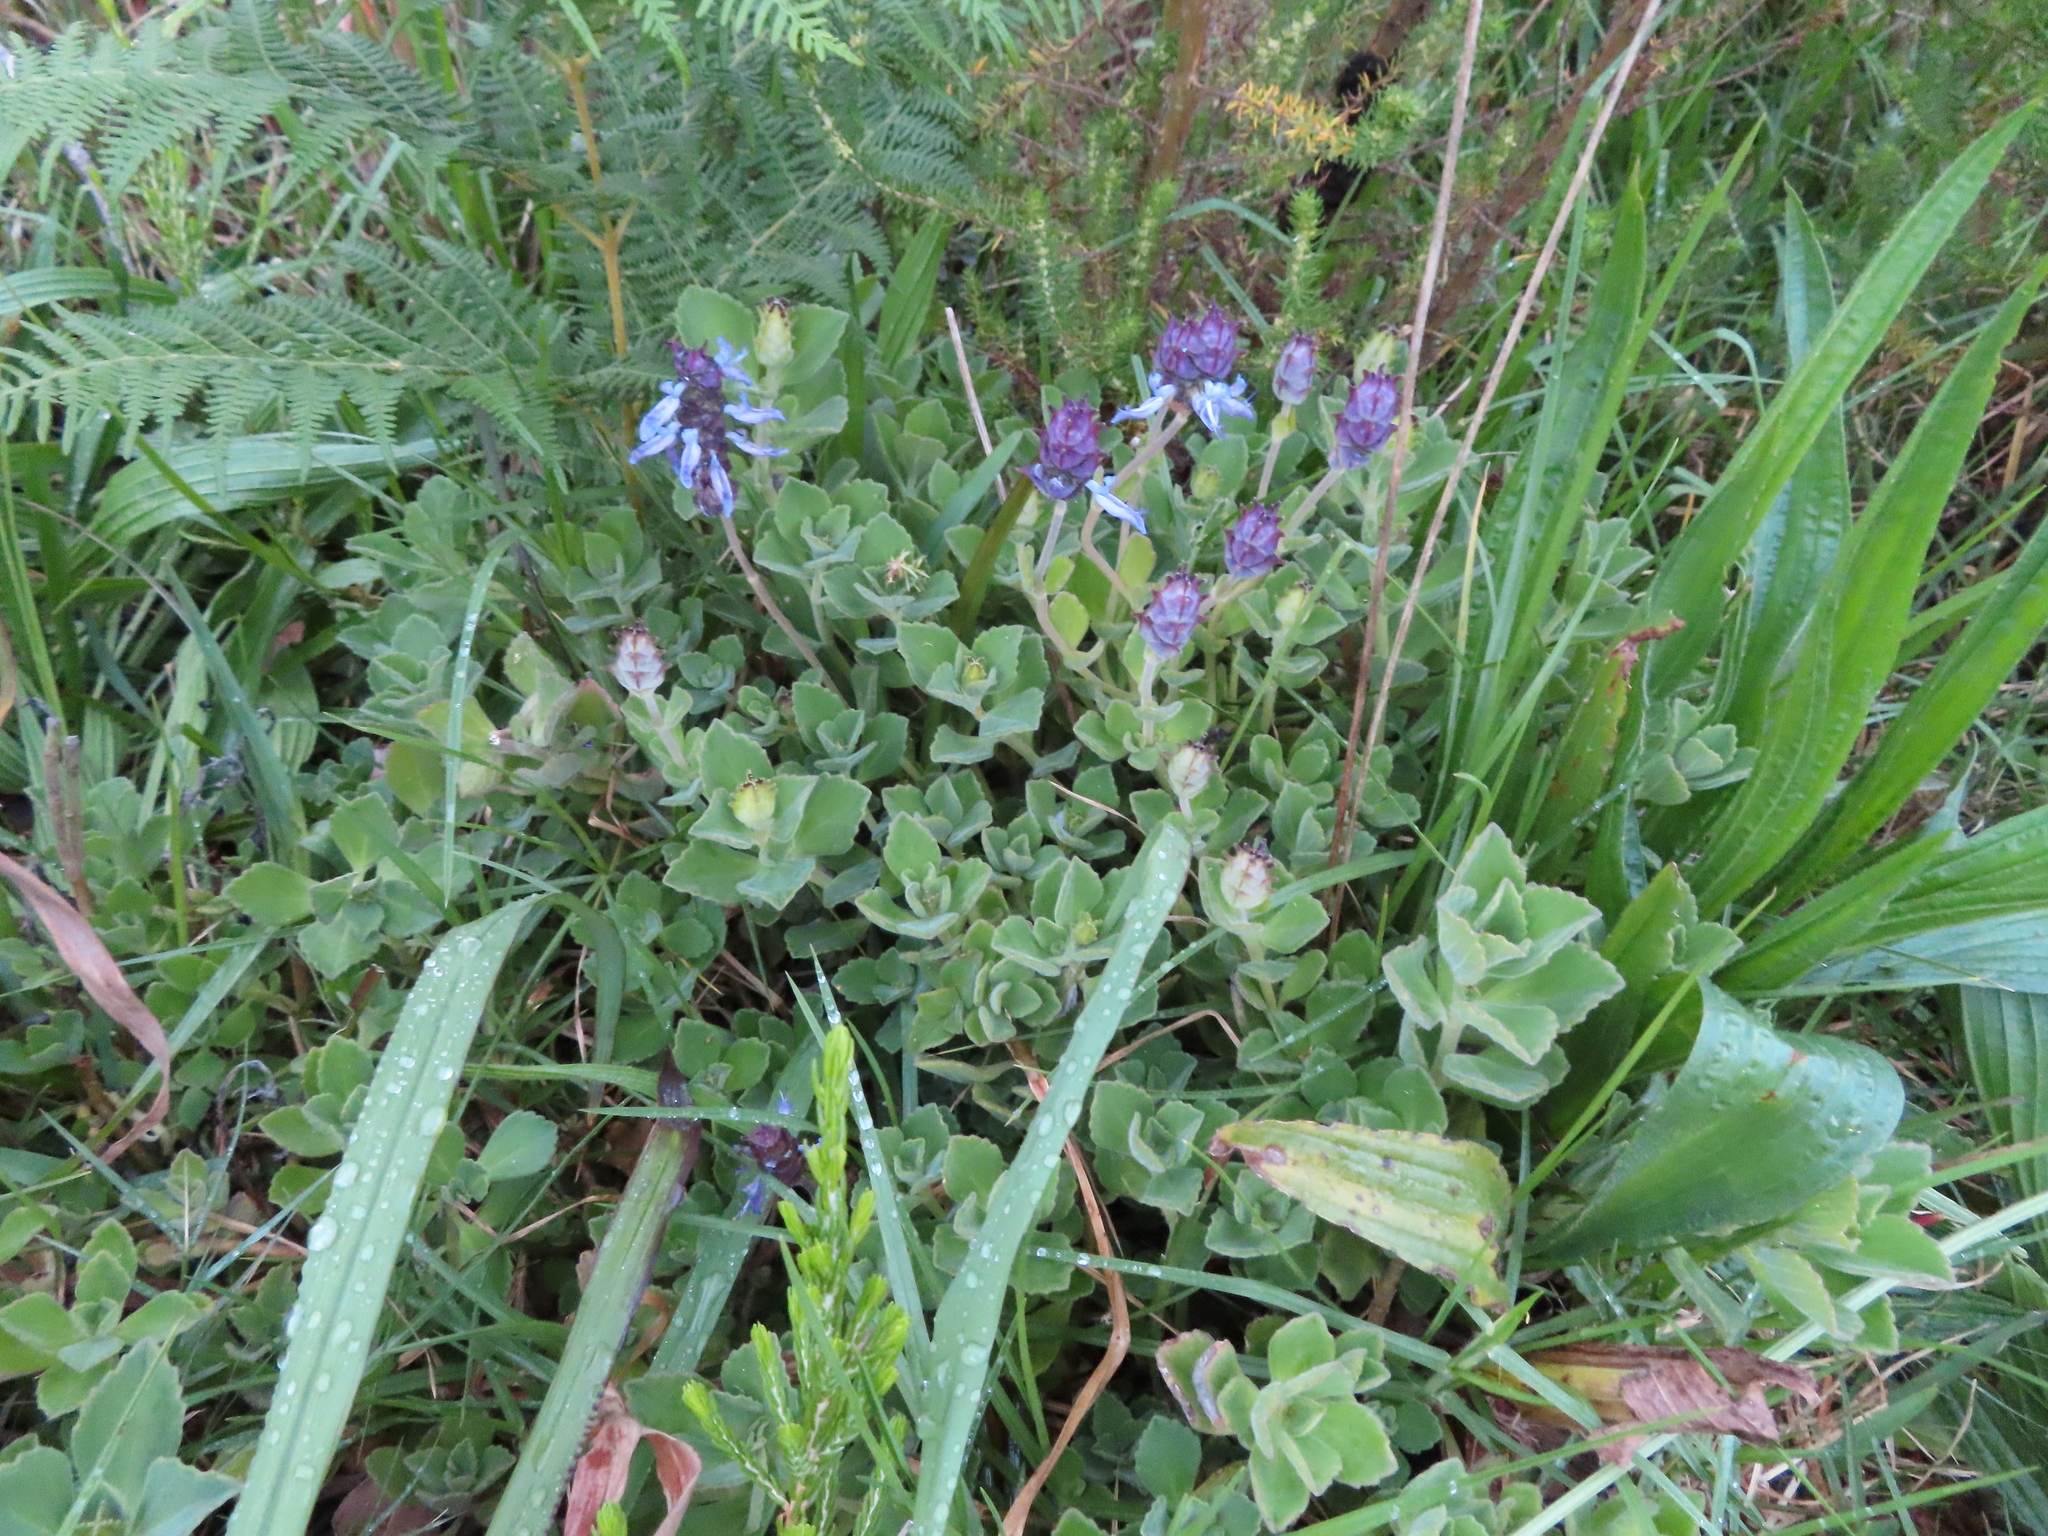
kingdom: Plantae
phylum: Tracheophyta
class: Magnoliopsida
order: Lamiales
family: Lamiaceae
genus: Coleus
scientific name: Coleus neochilus
